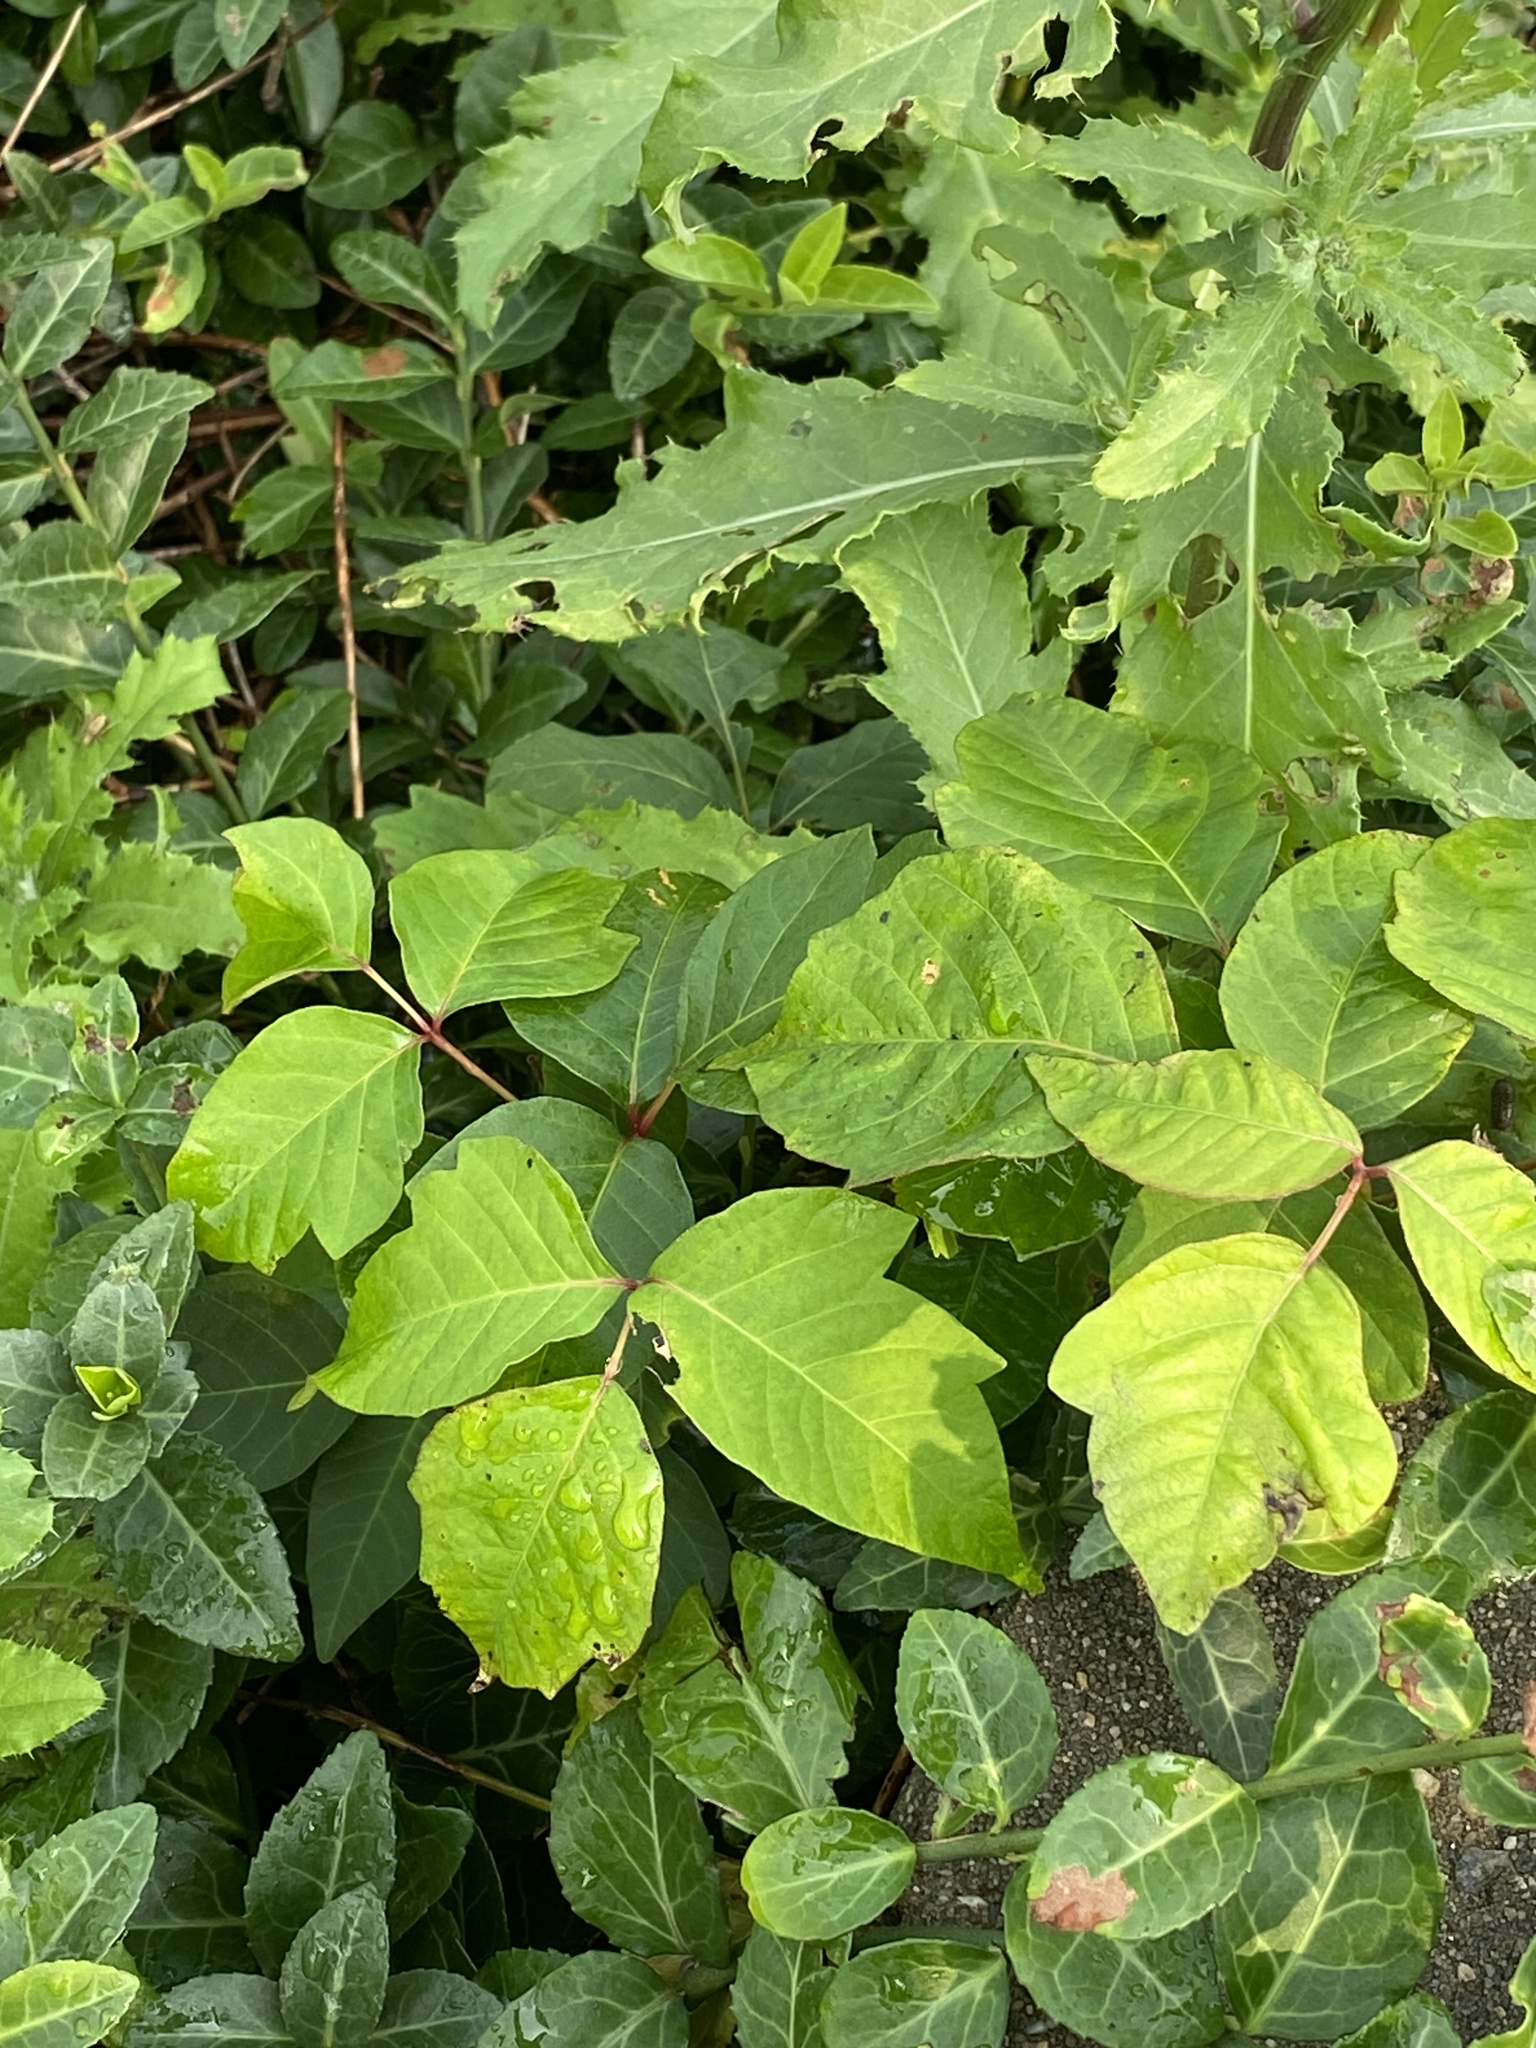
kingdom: Plantae
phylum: Tracheophyta
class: Magnoliopsida
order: Sapindales
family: Anacardiaceae
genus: Toxicodendron
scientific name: Toxicodendron radicans
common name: Poison ivy
